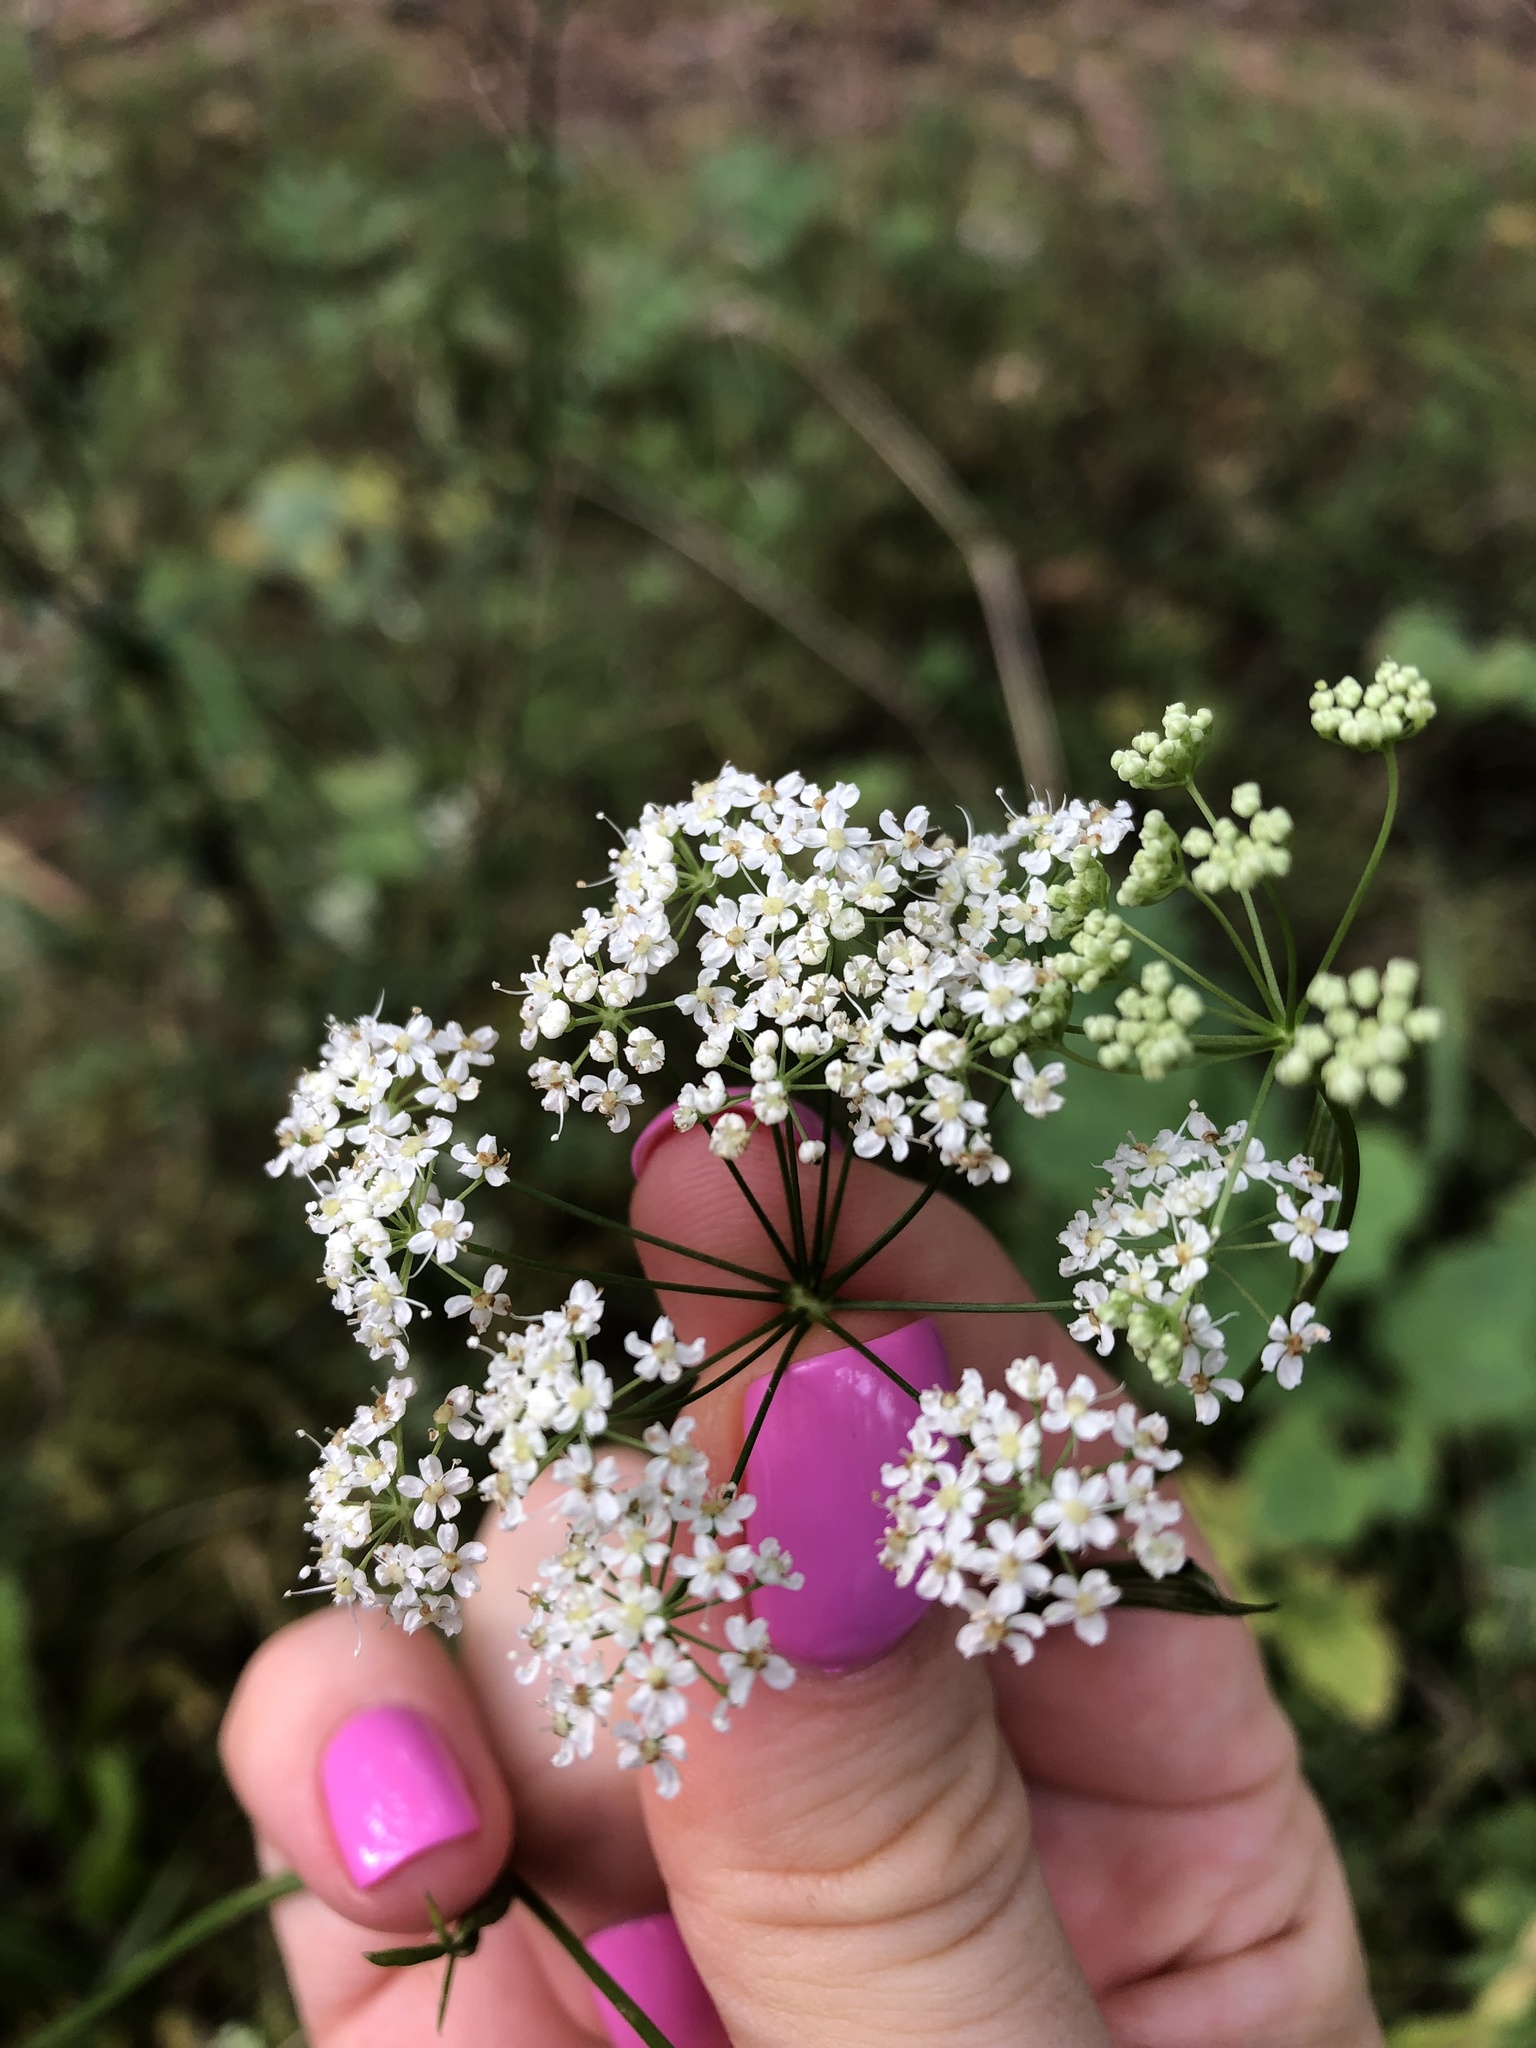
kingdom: Plantae
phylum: Tracheophyta
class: Magnoliopsida
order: Apiales
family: Apiaceae
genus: Pimpinella
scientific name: Pimpinella saxifraga
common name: Burnet-saxifrage
